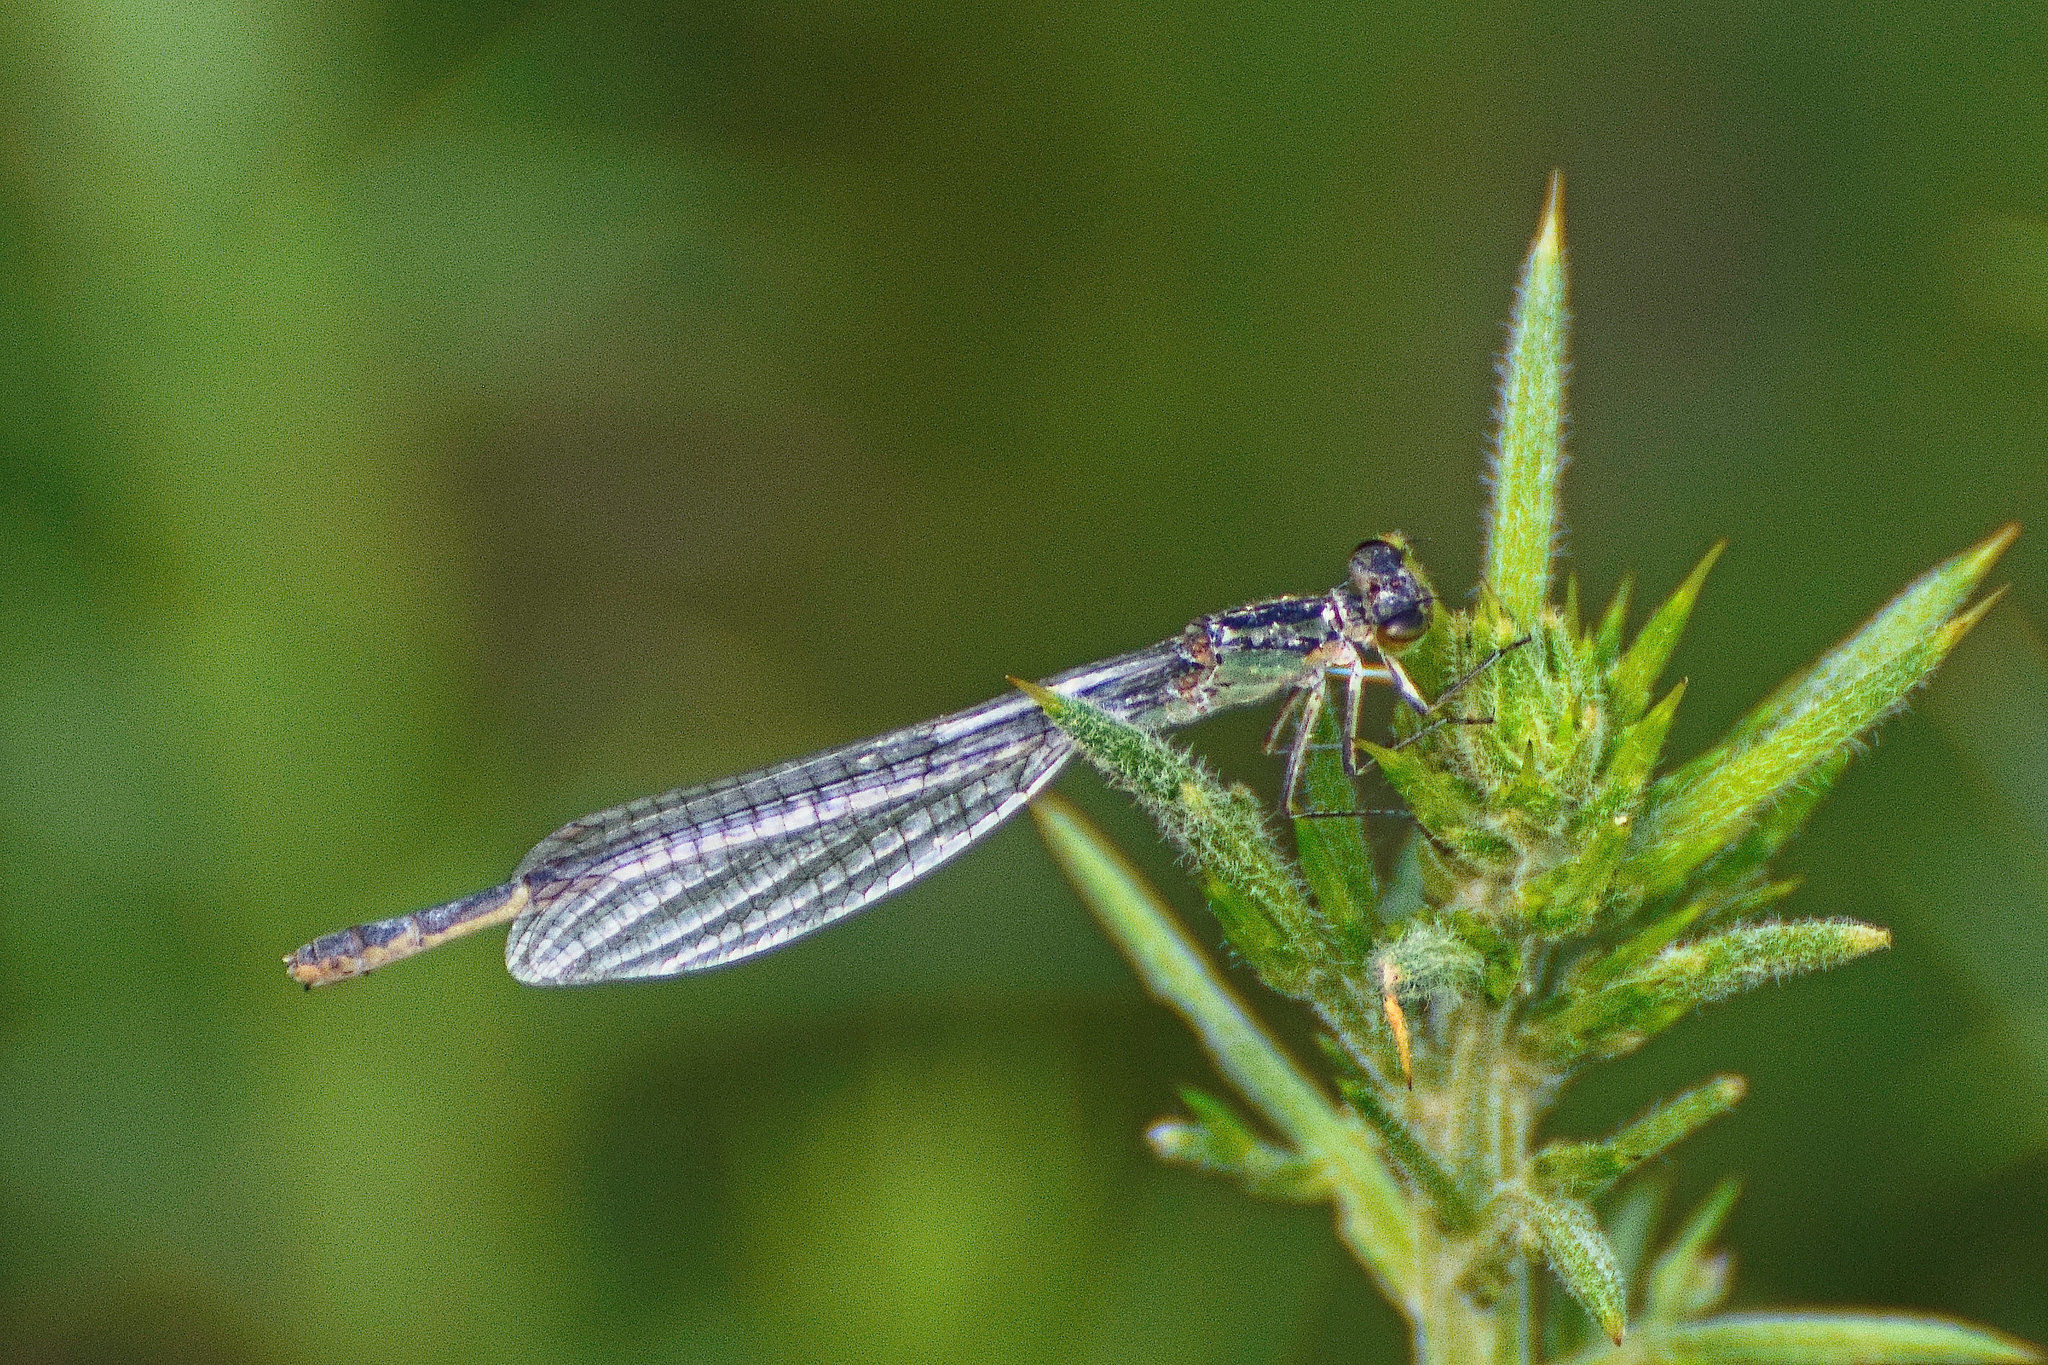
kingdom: Animalia
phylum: Arthropoda
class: Insecta
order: Odonata
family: Coenagrionidae
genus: Enallagma
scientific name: Enallagma cyathigerum
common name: Common blue damselfly
